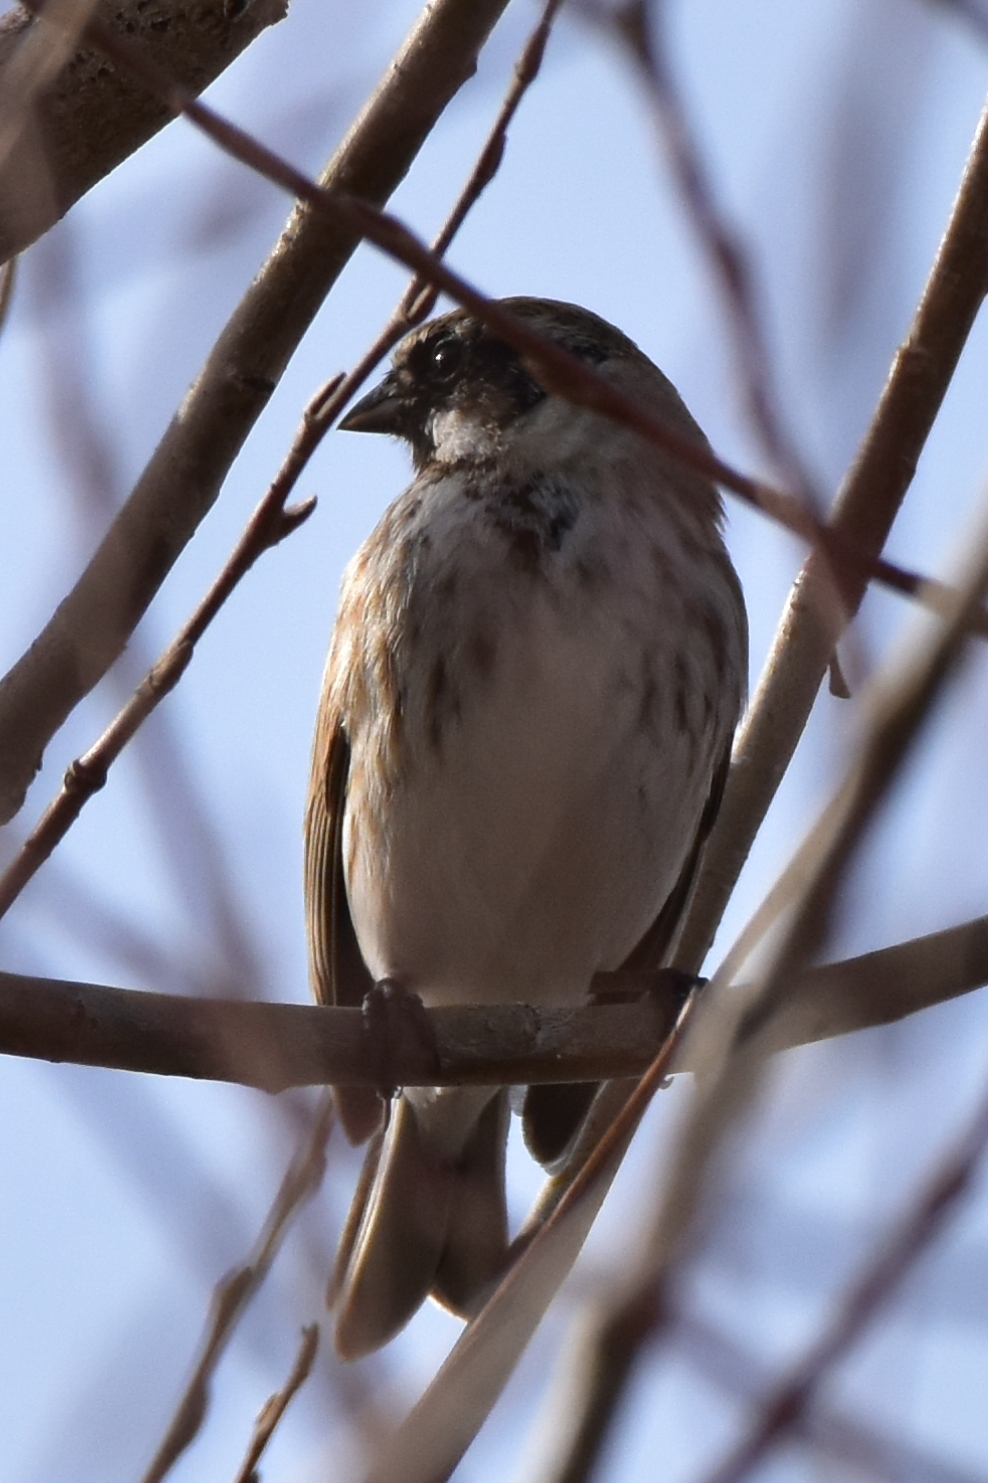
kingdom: Animalia
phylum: Chordata
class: Aves
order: Passeriformes
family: Emberizidae
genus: Emberiza
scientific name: Emberiza schoeniclus
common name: Reed bunting
